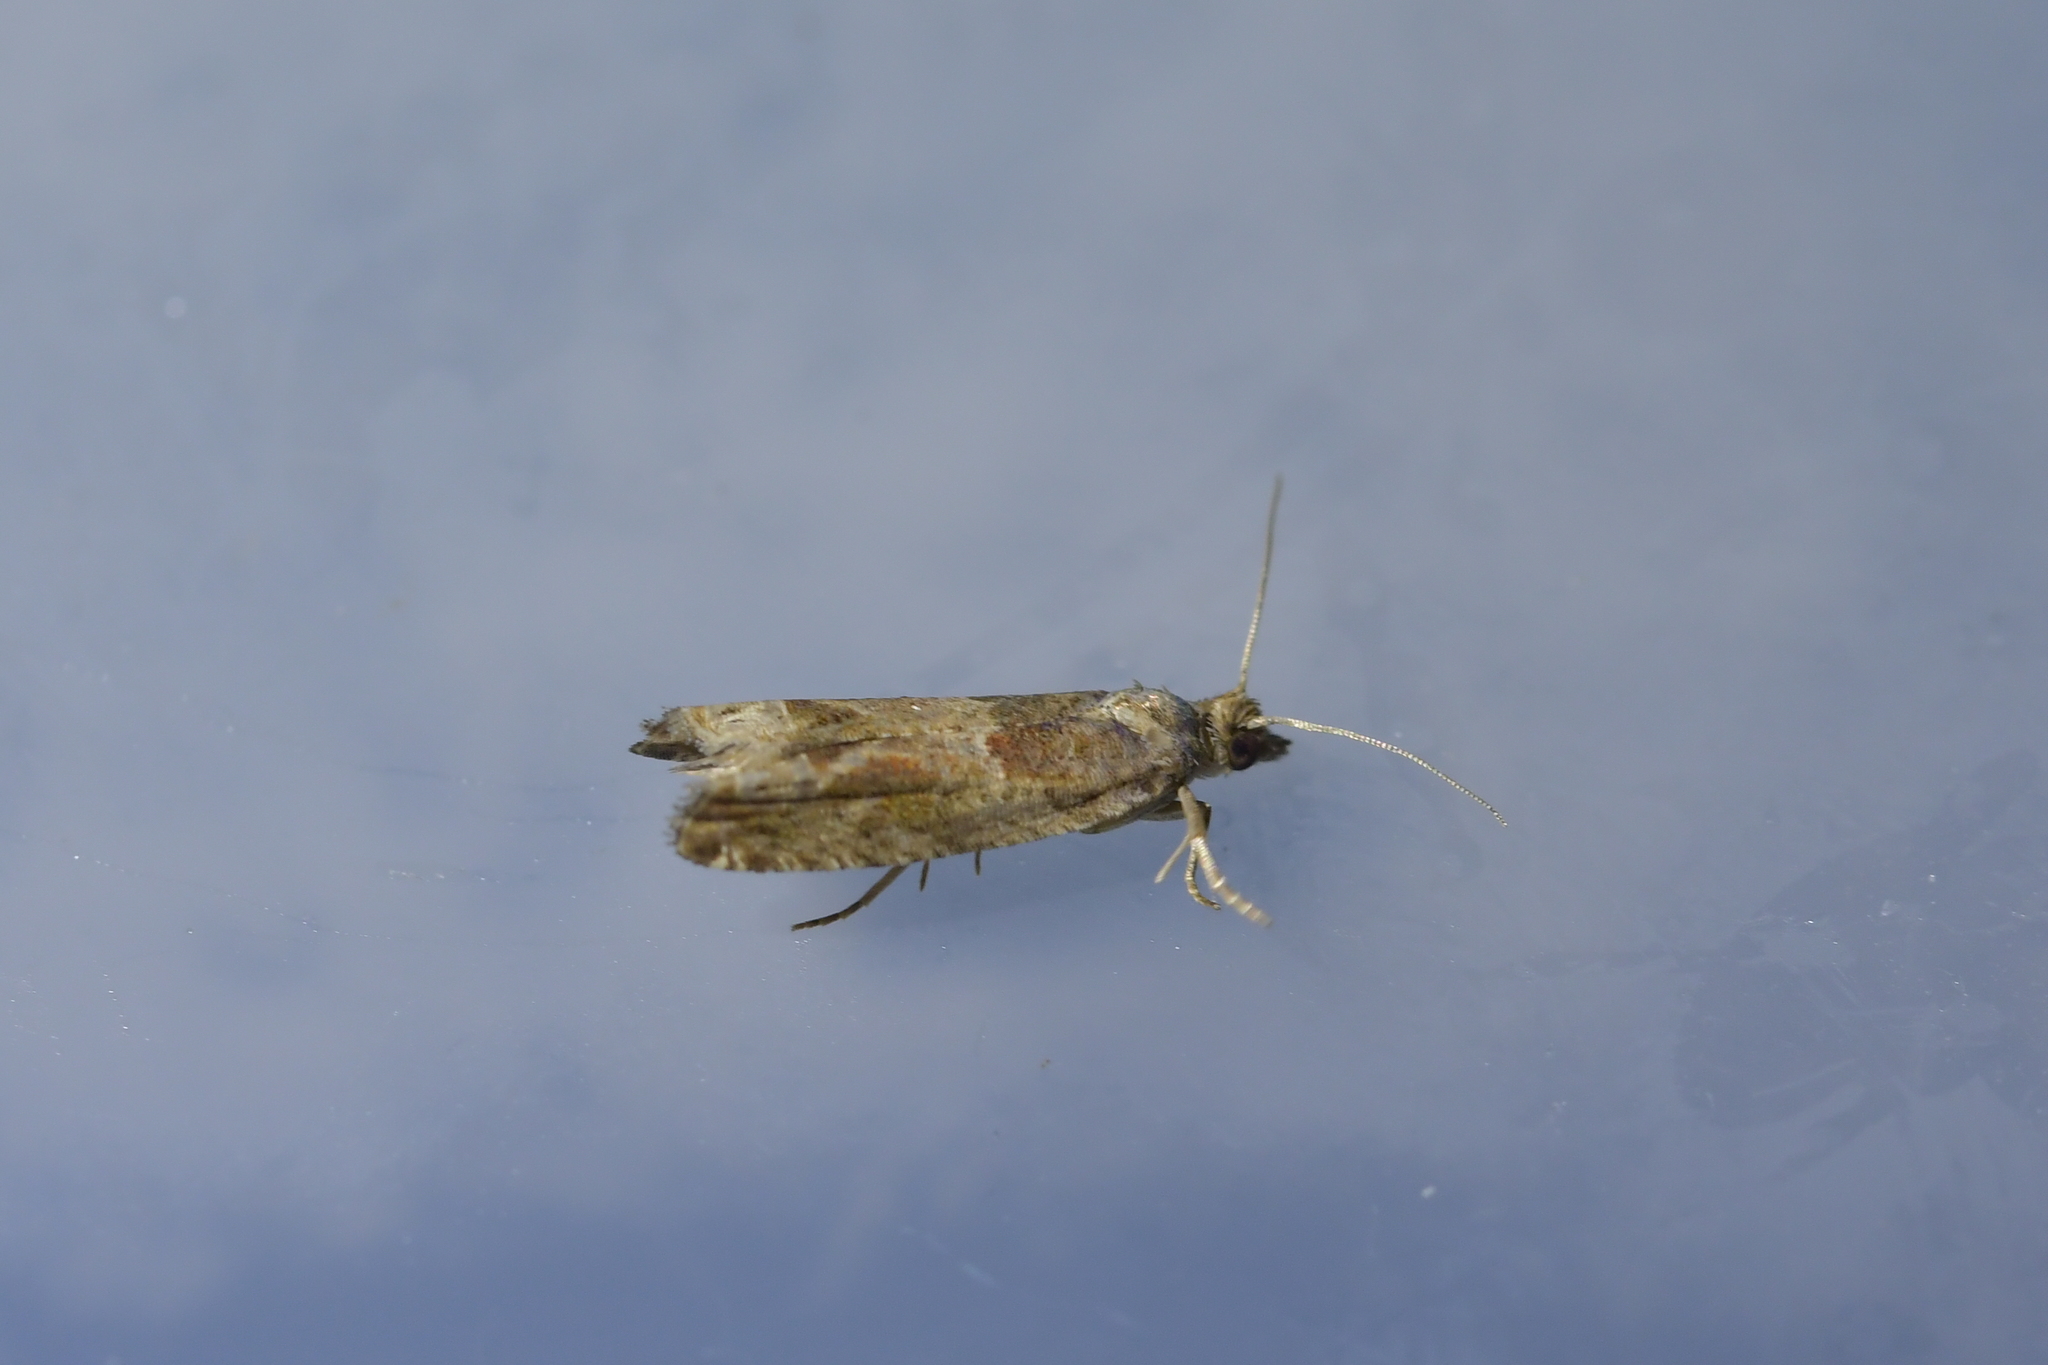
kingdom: Animalia
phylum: Arthropoda
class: Insecta
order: Lepidoptera
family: Tortricidae
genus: Crocidosema
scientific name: Crocidosema plebejana
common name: Southern bell
